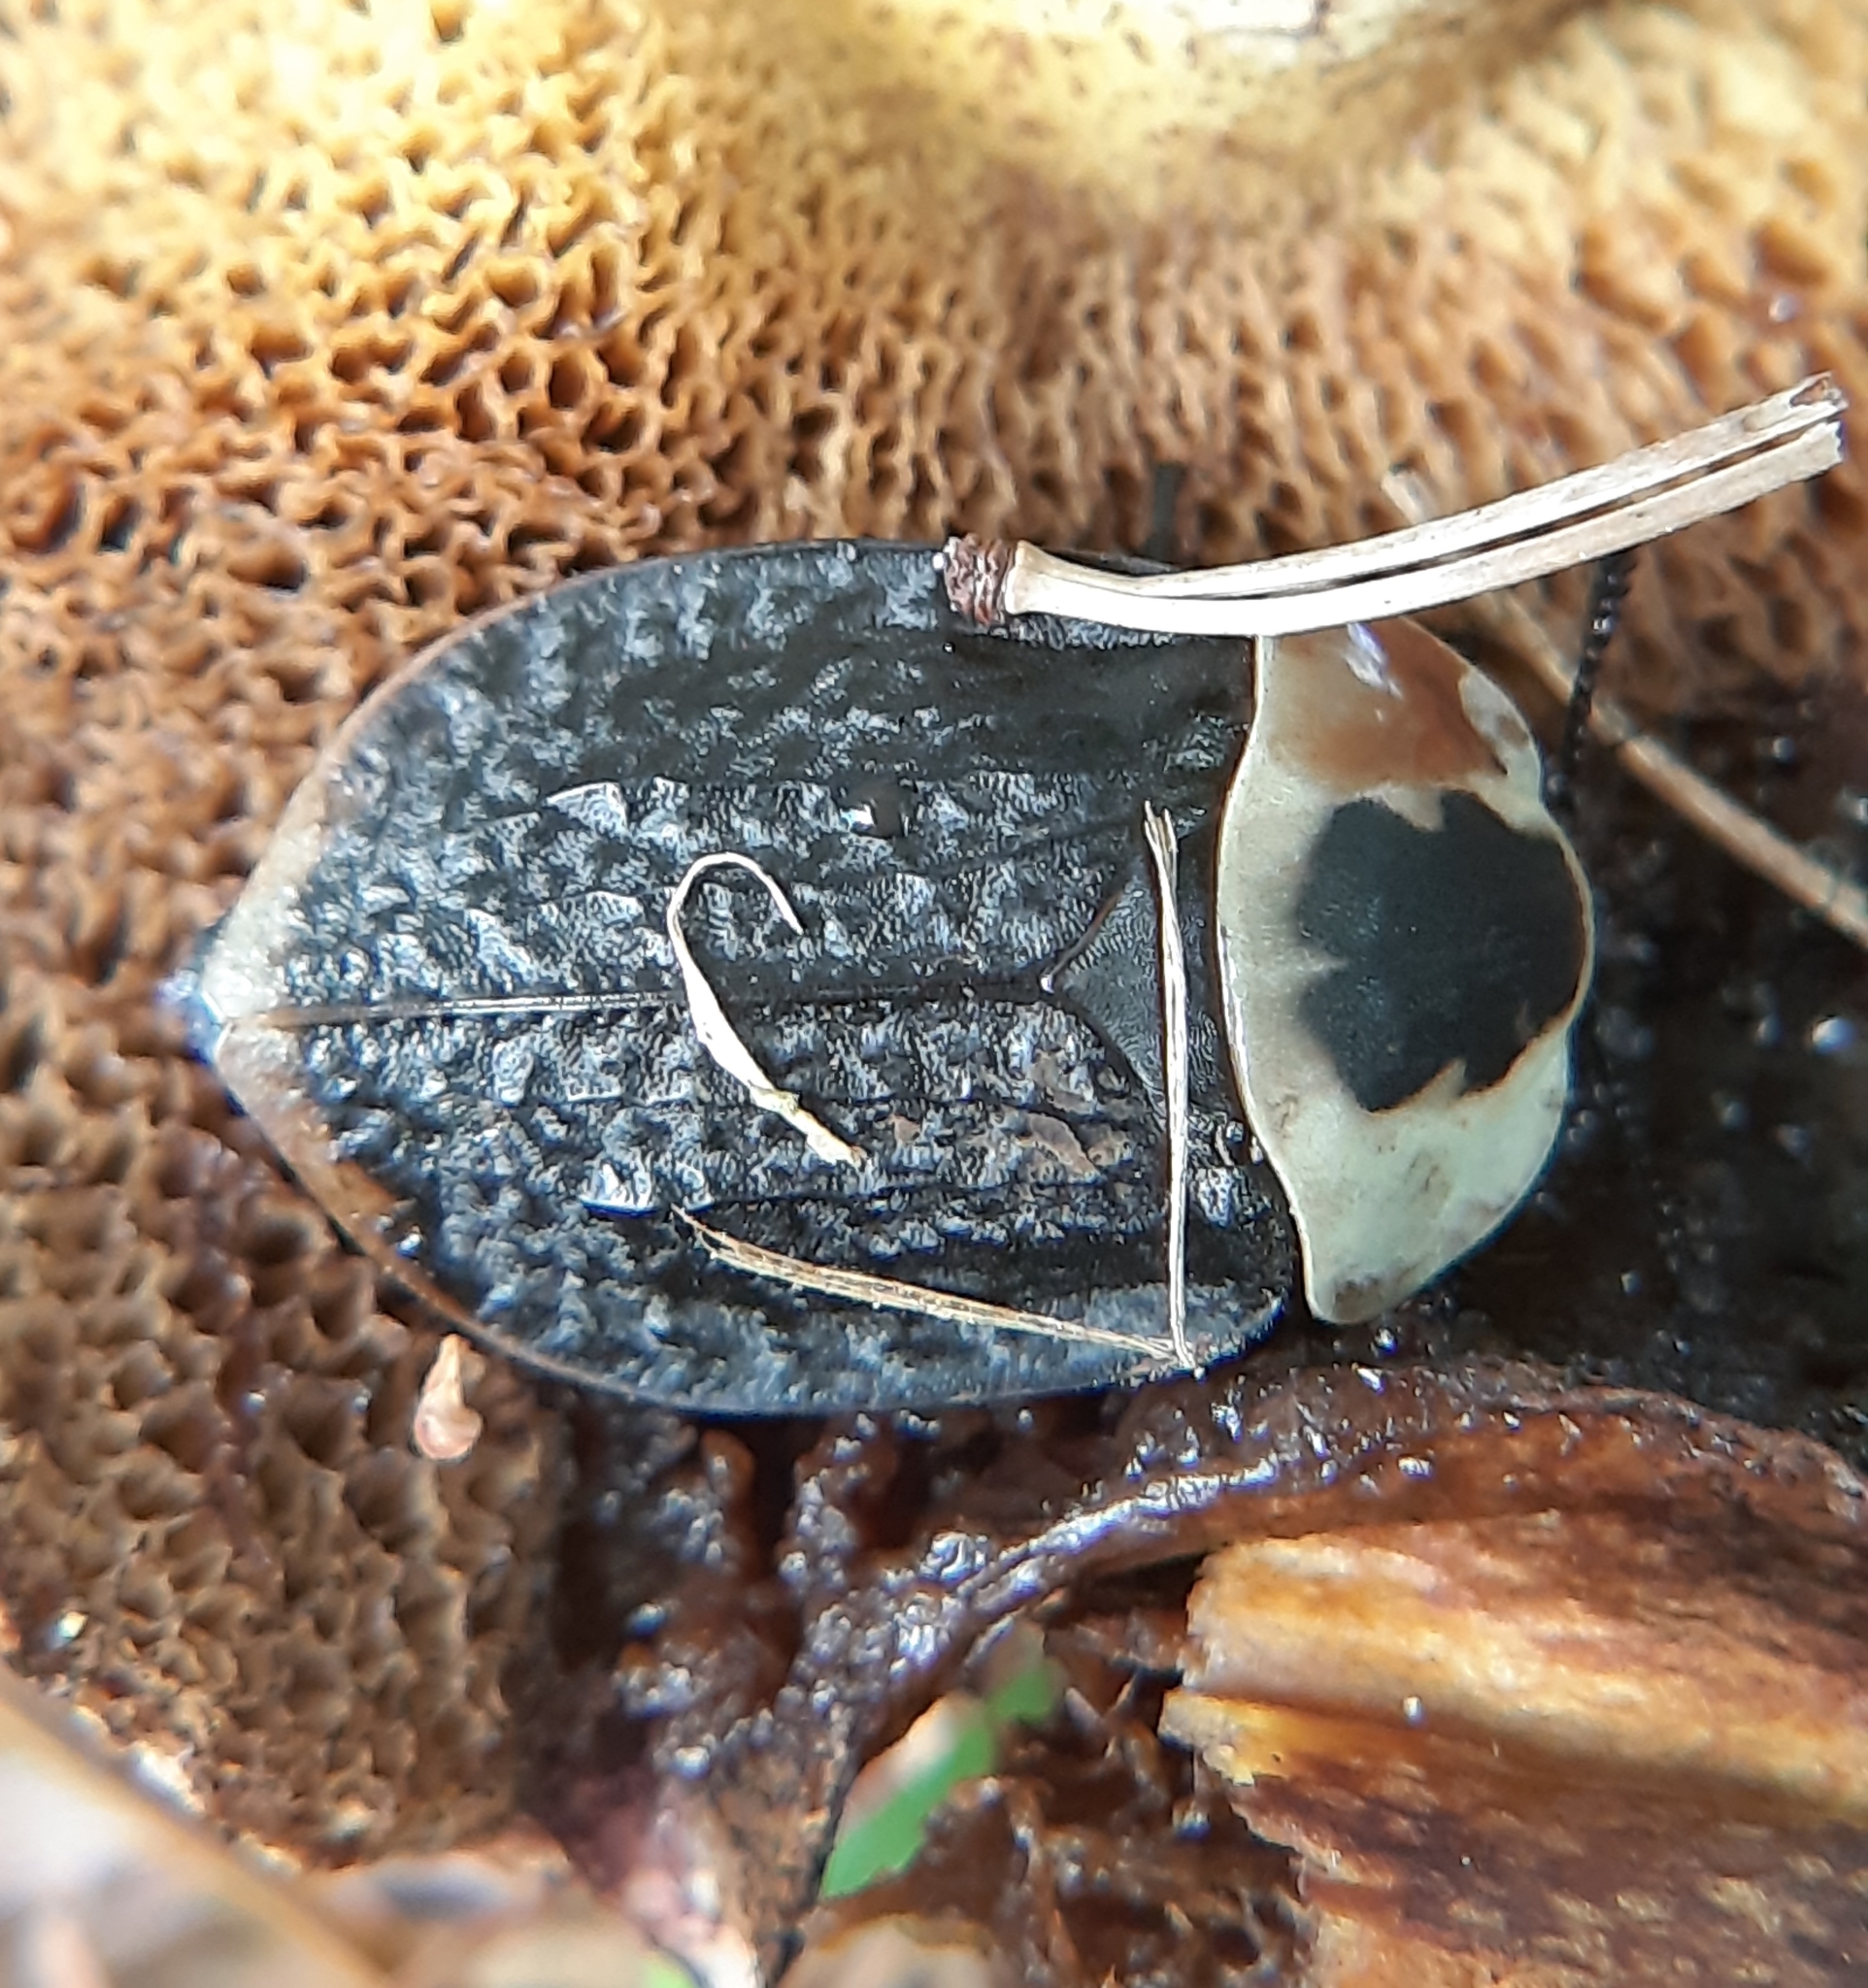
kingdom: Animalia
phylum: Arthropoda
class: Insecta
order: Coleoptera
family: Staphylinidae
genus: Necrophila
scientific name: Necrophila americana
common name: American carrion beetle
